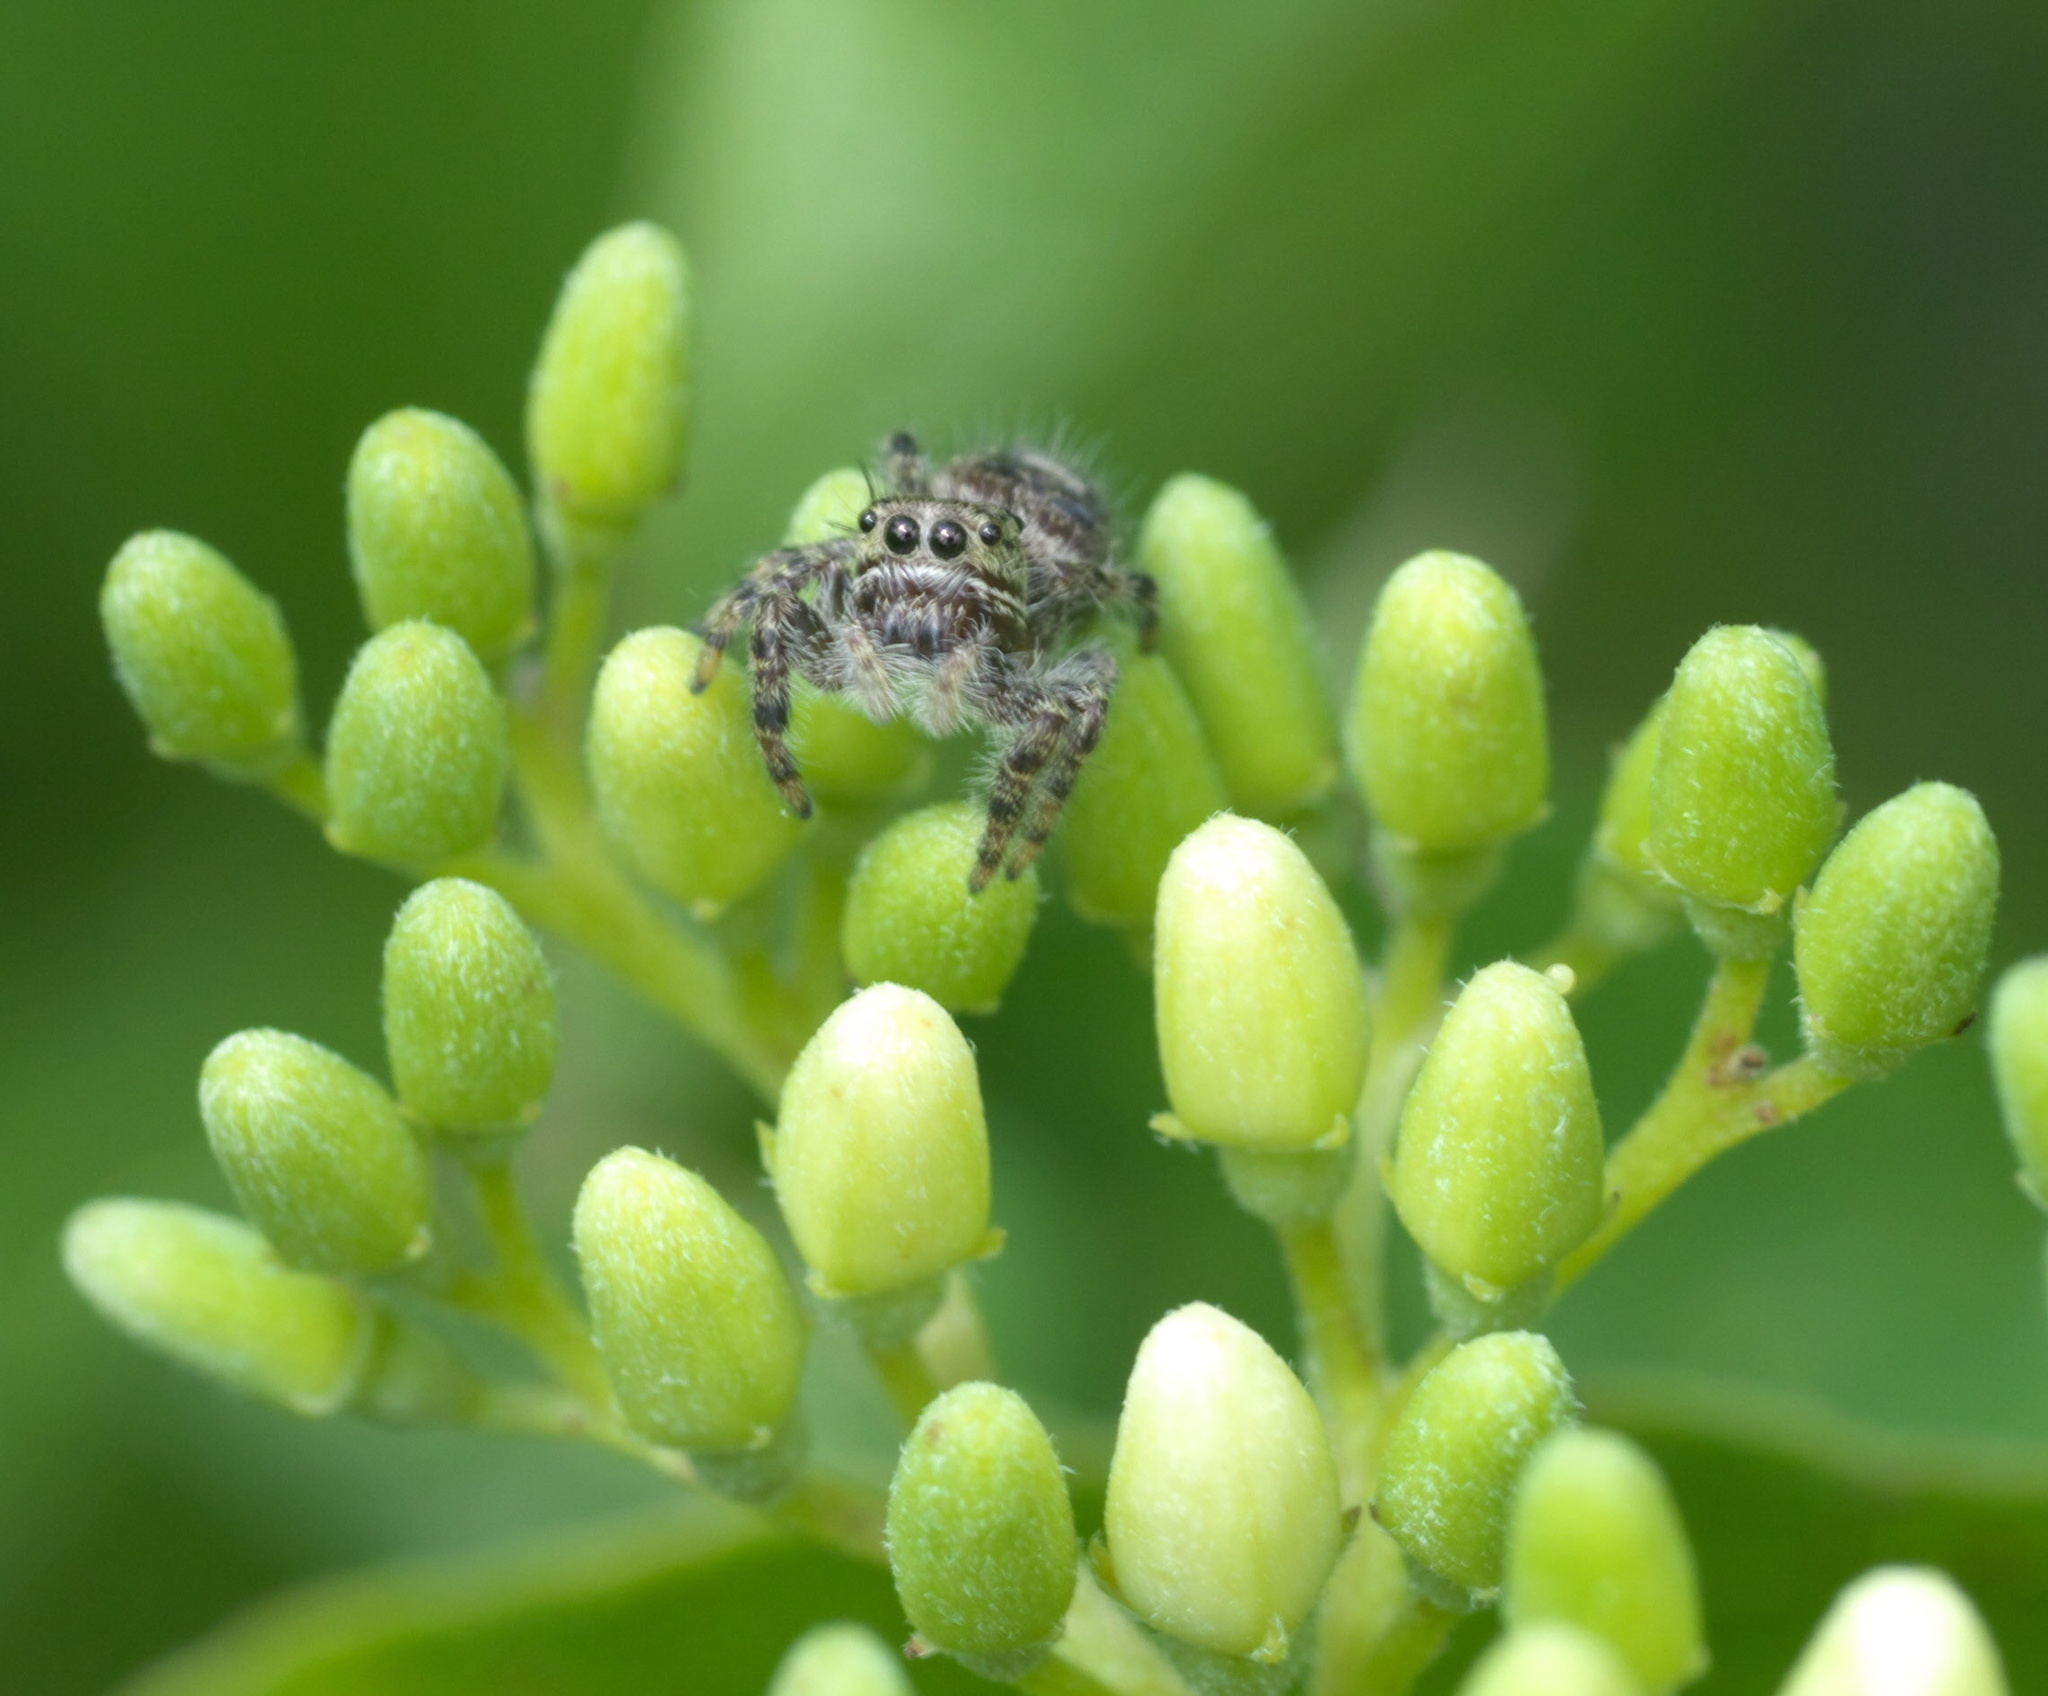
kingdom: Animalia
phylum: Arthropoda
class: Arachnida
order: Araneae
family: Salticidae
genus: Phidippus
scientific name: Phidippus putnami
